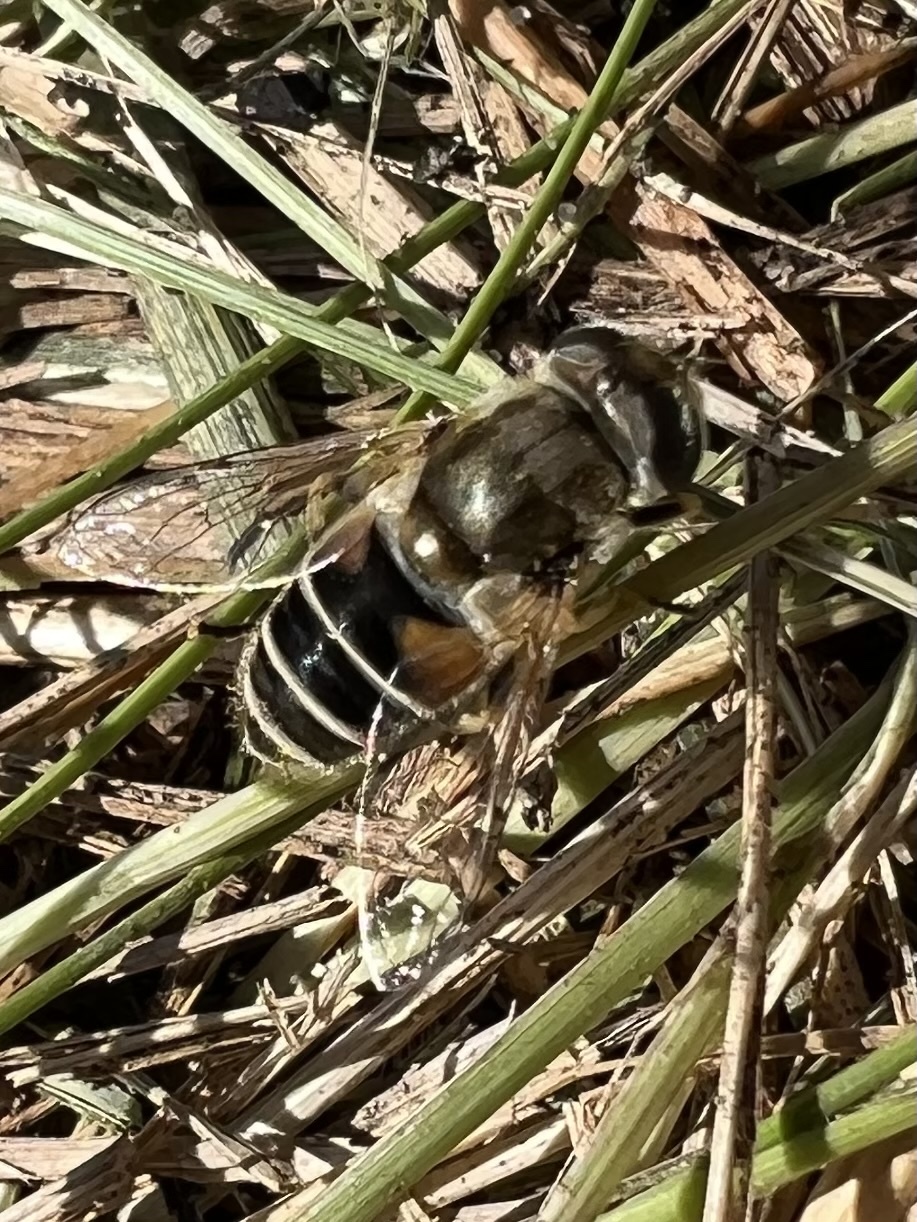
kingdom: Animalia
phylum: Arthropoda
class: Insecta
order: Diptera
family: Syrphidae
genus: Eristalis
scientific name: Eristalis arbustorum
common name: Hover fly
